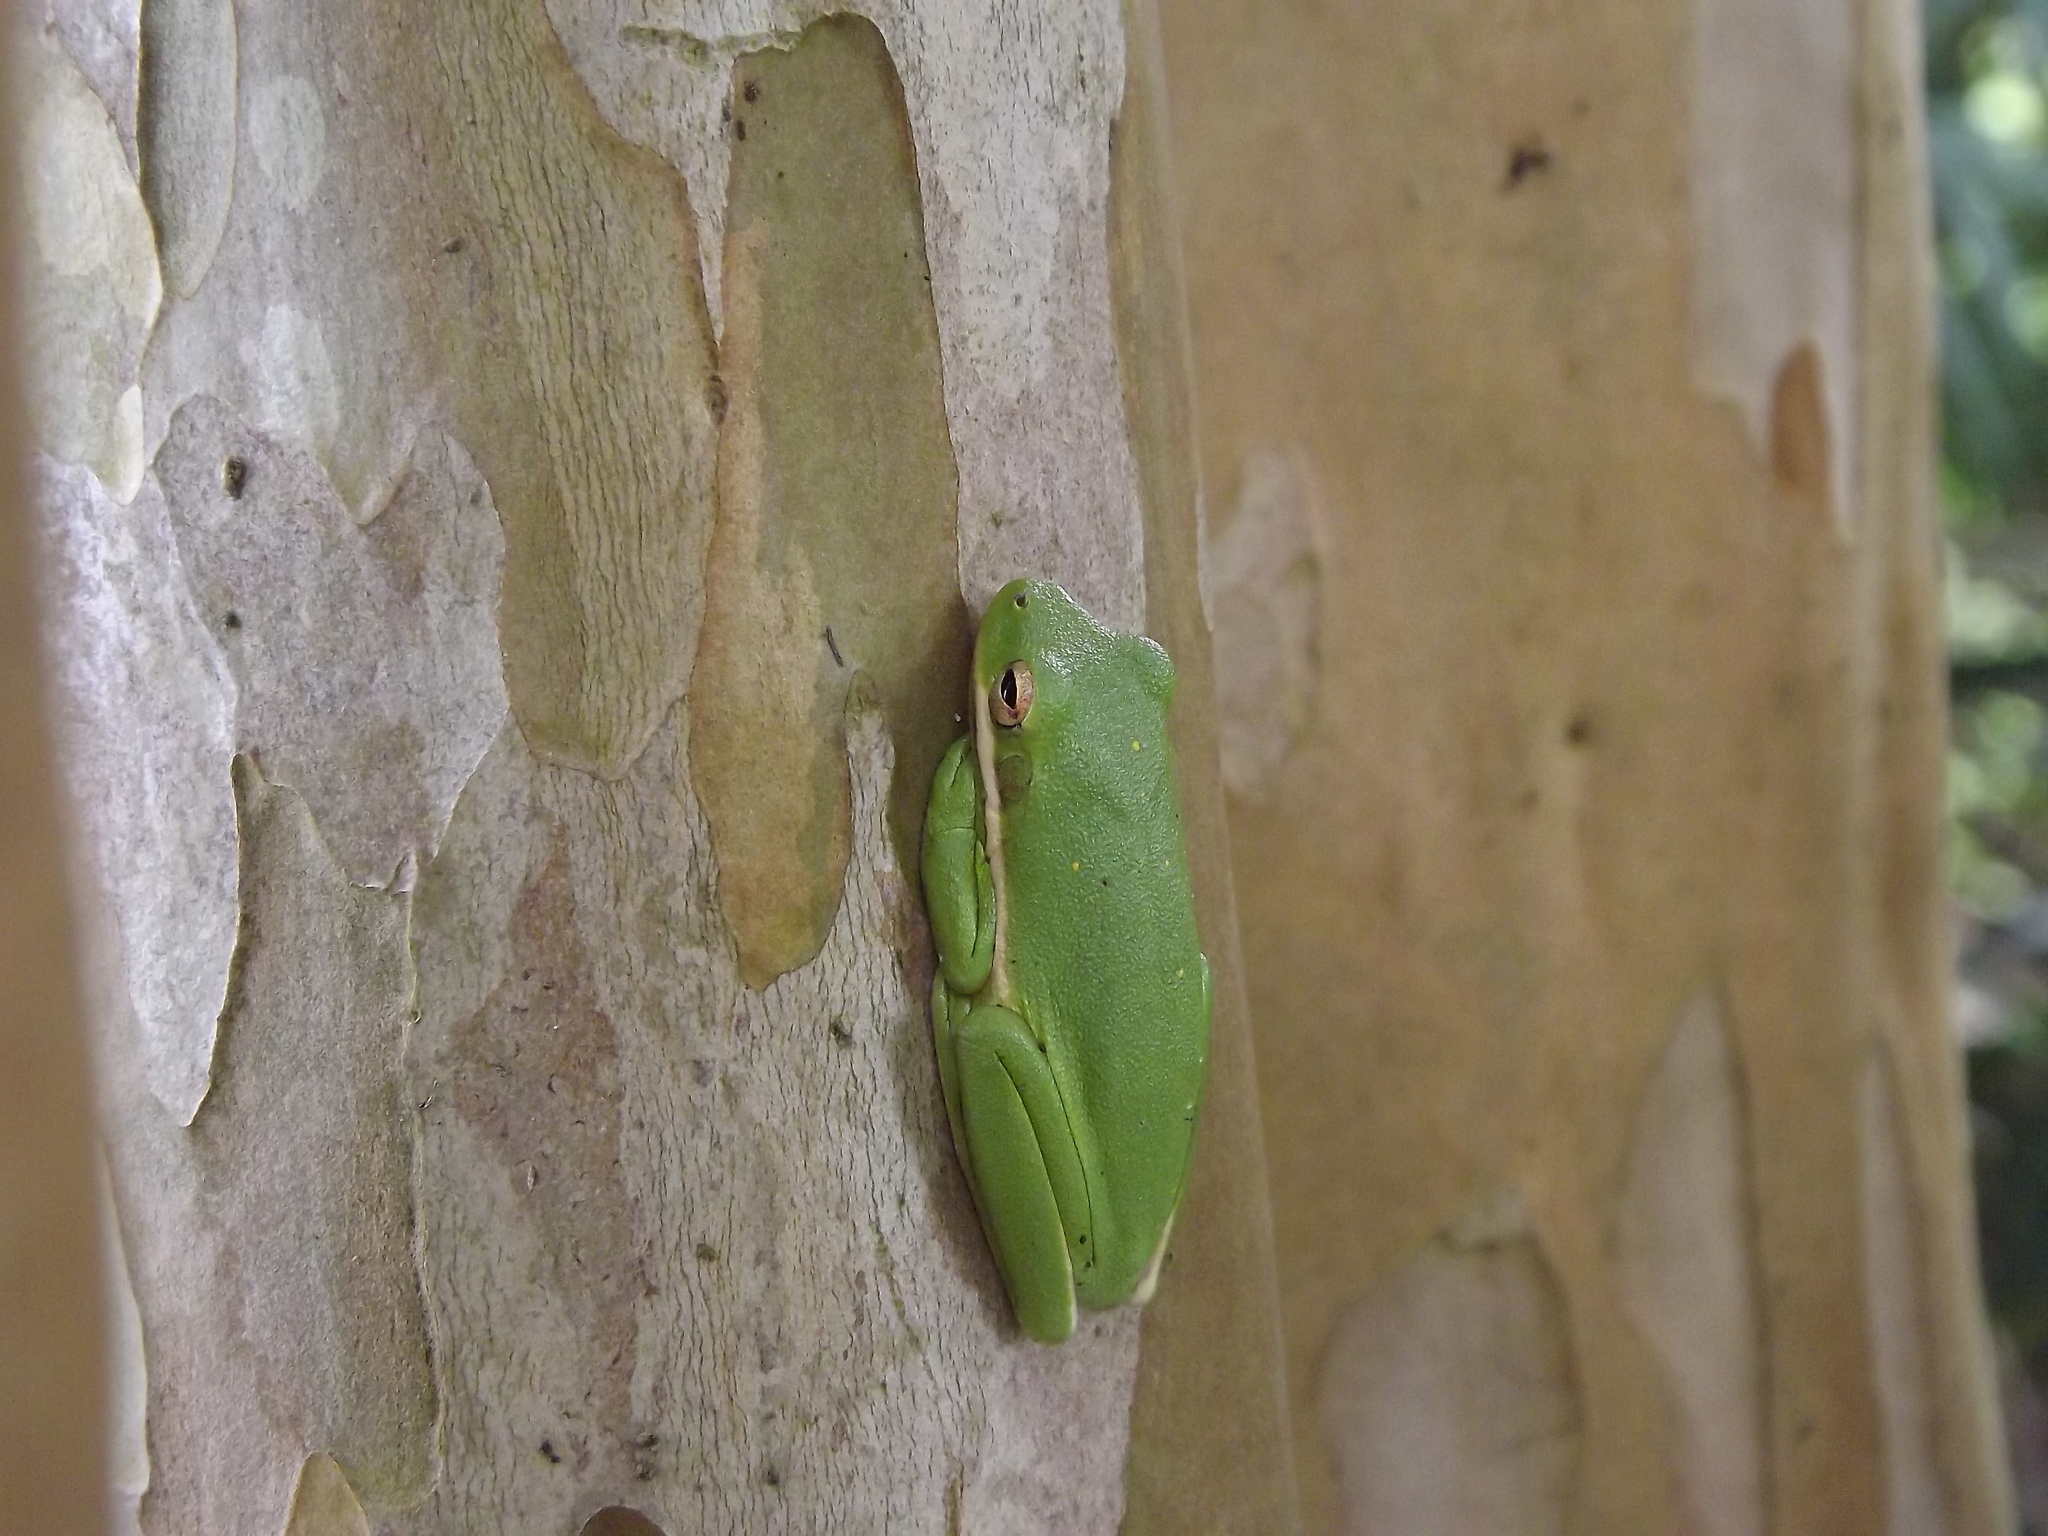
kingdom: Animalia
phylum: Chordata
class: Amphibia
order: Anura
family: Hylidae
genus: Dryophytes
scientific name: Dryophytes cinereus
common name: Green treefrog
